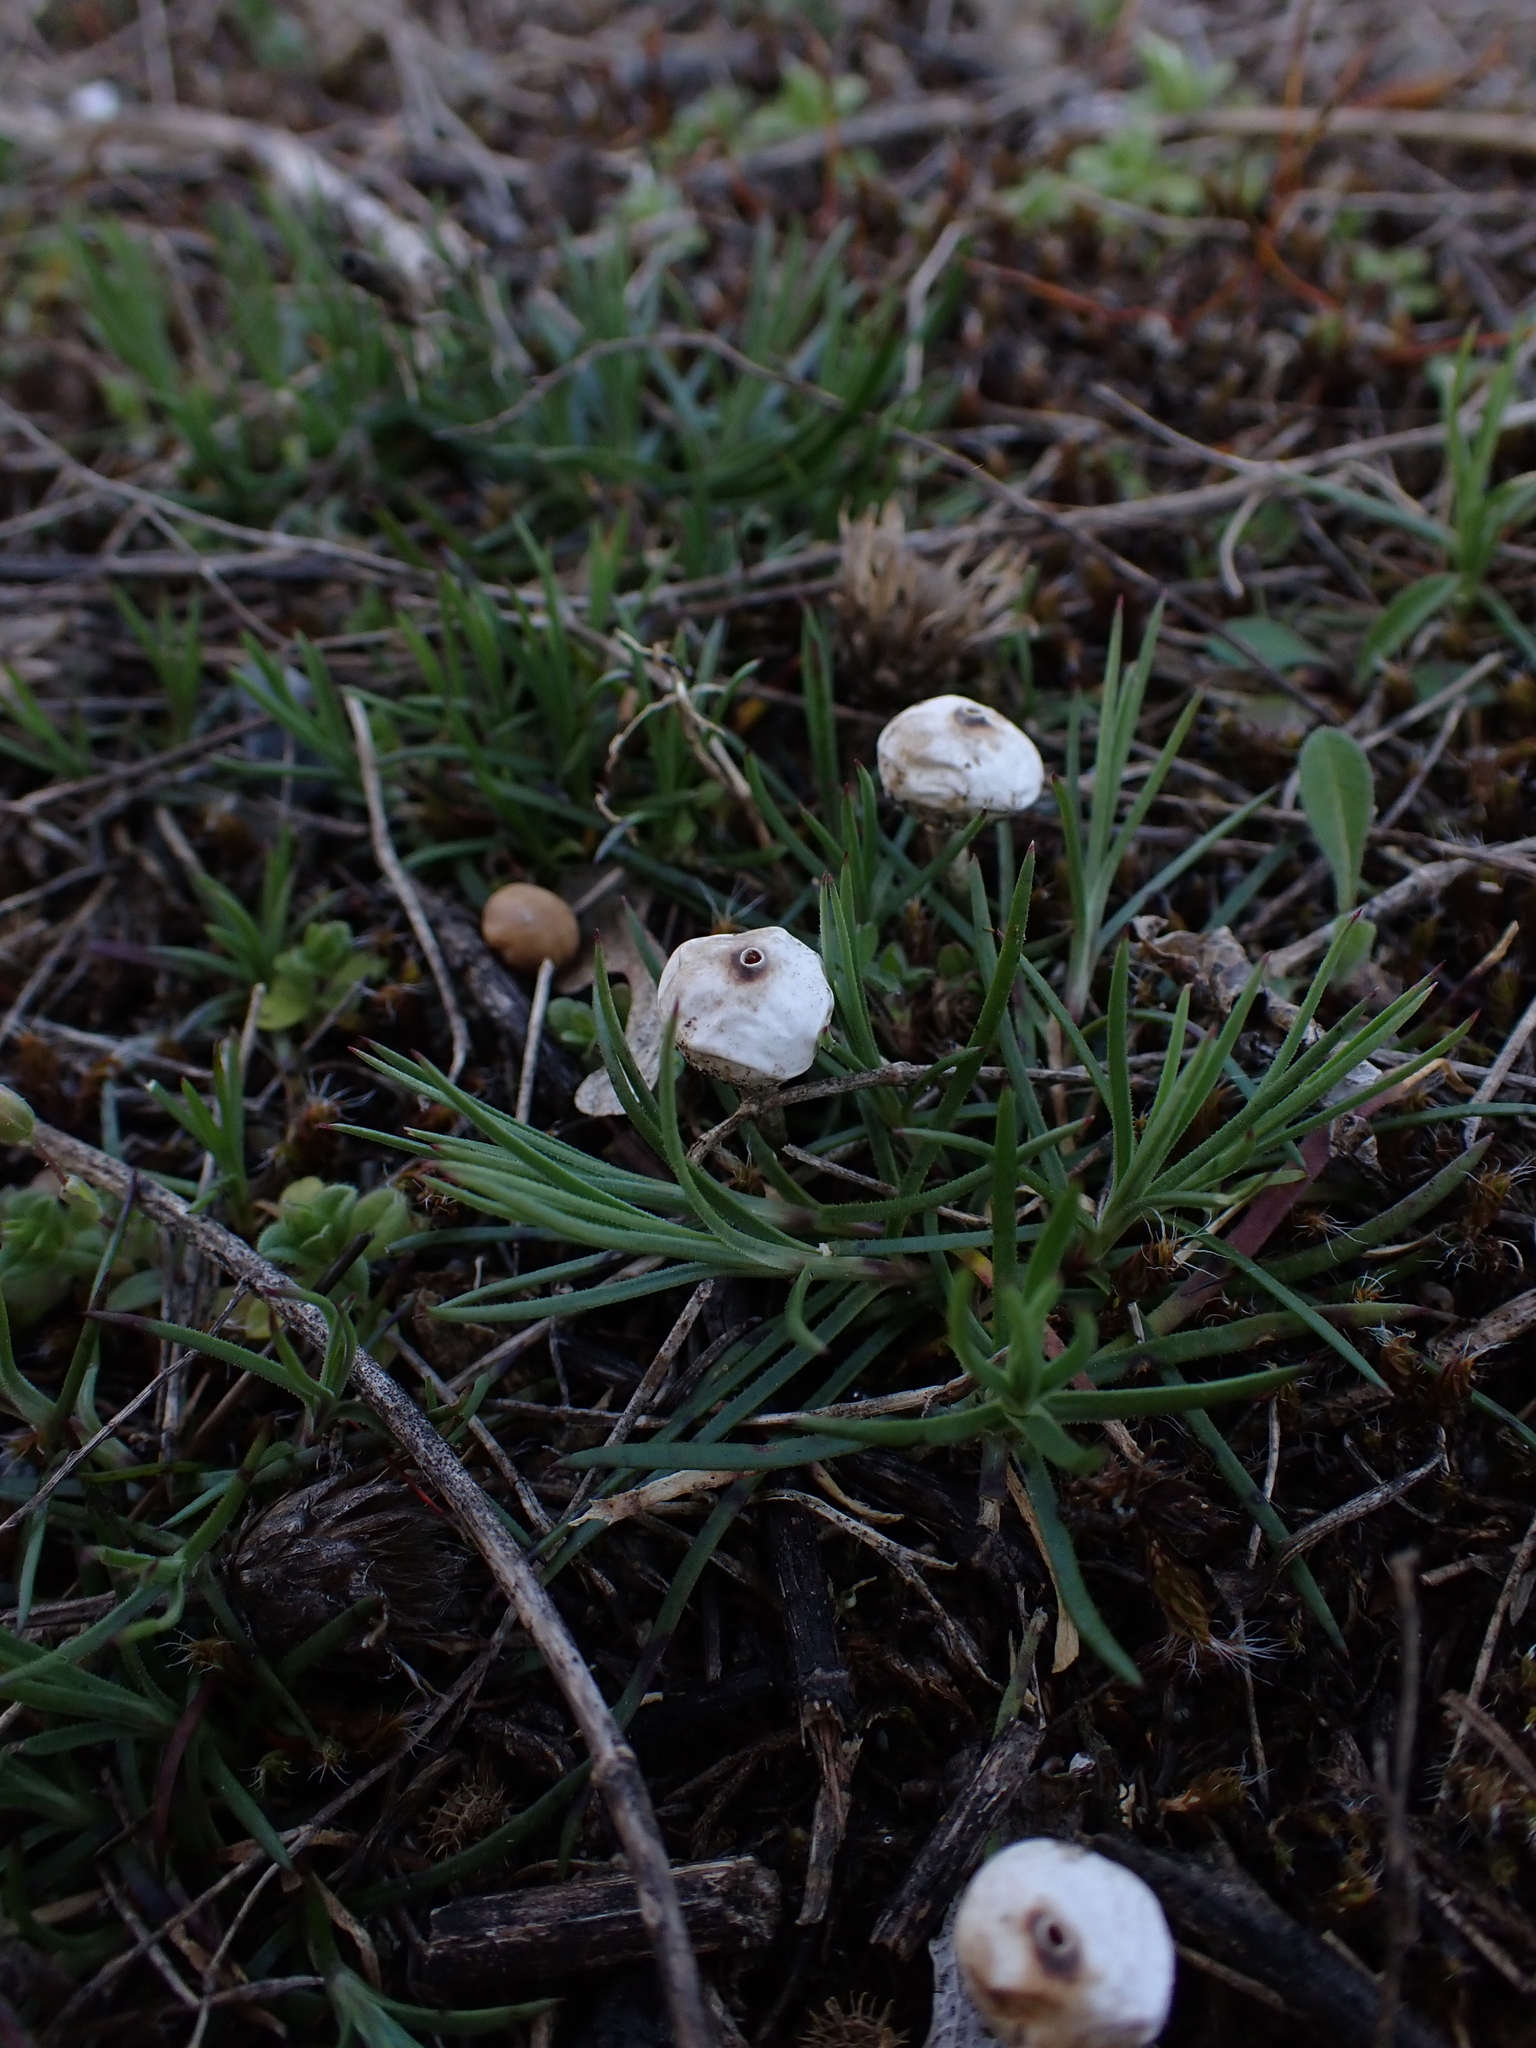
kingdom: Fungi
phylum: Basidiomycota
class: Agaricomycetes
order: Agaricales
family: Agaricaceae
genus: Tulostoma
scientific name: Tulostoma brumale
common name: Winter stalk puffball
